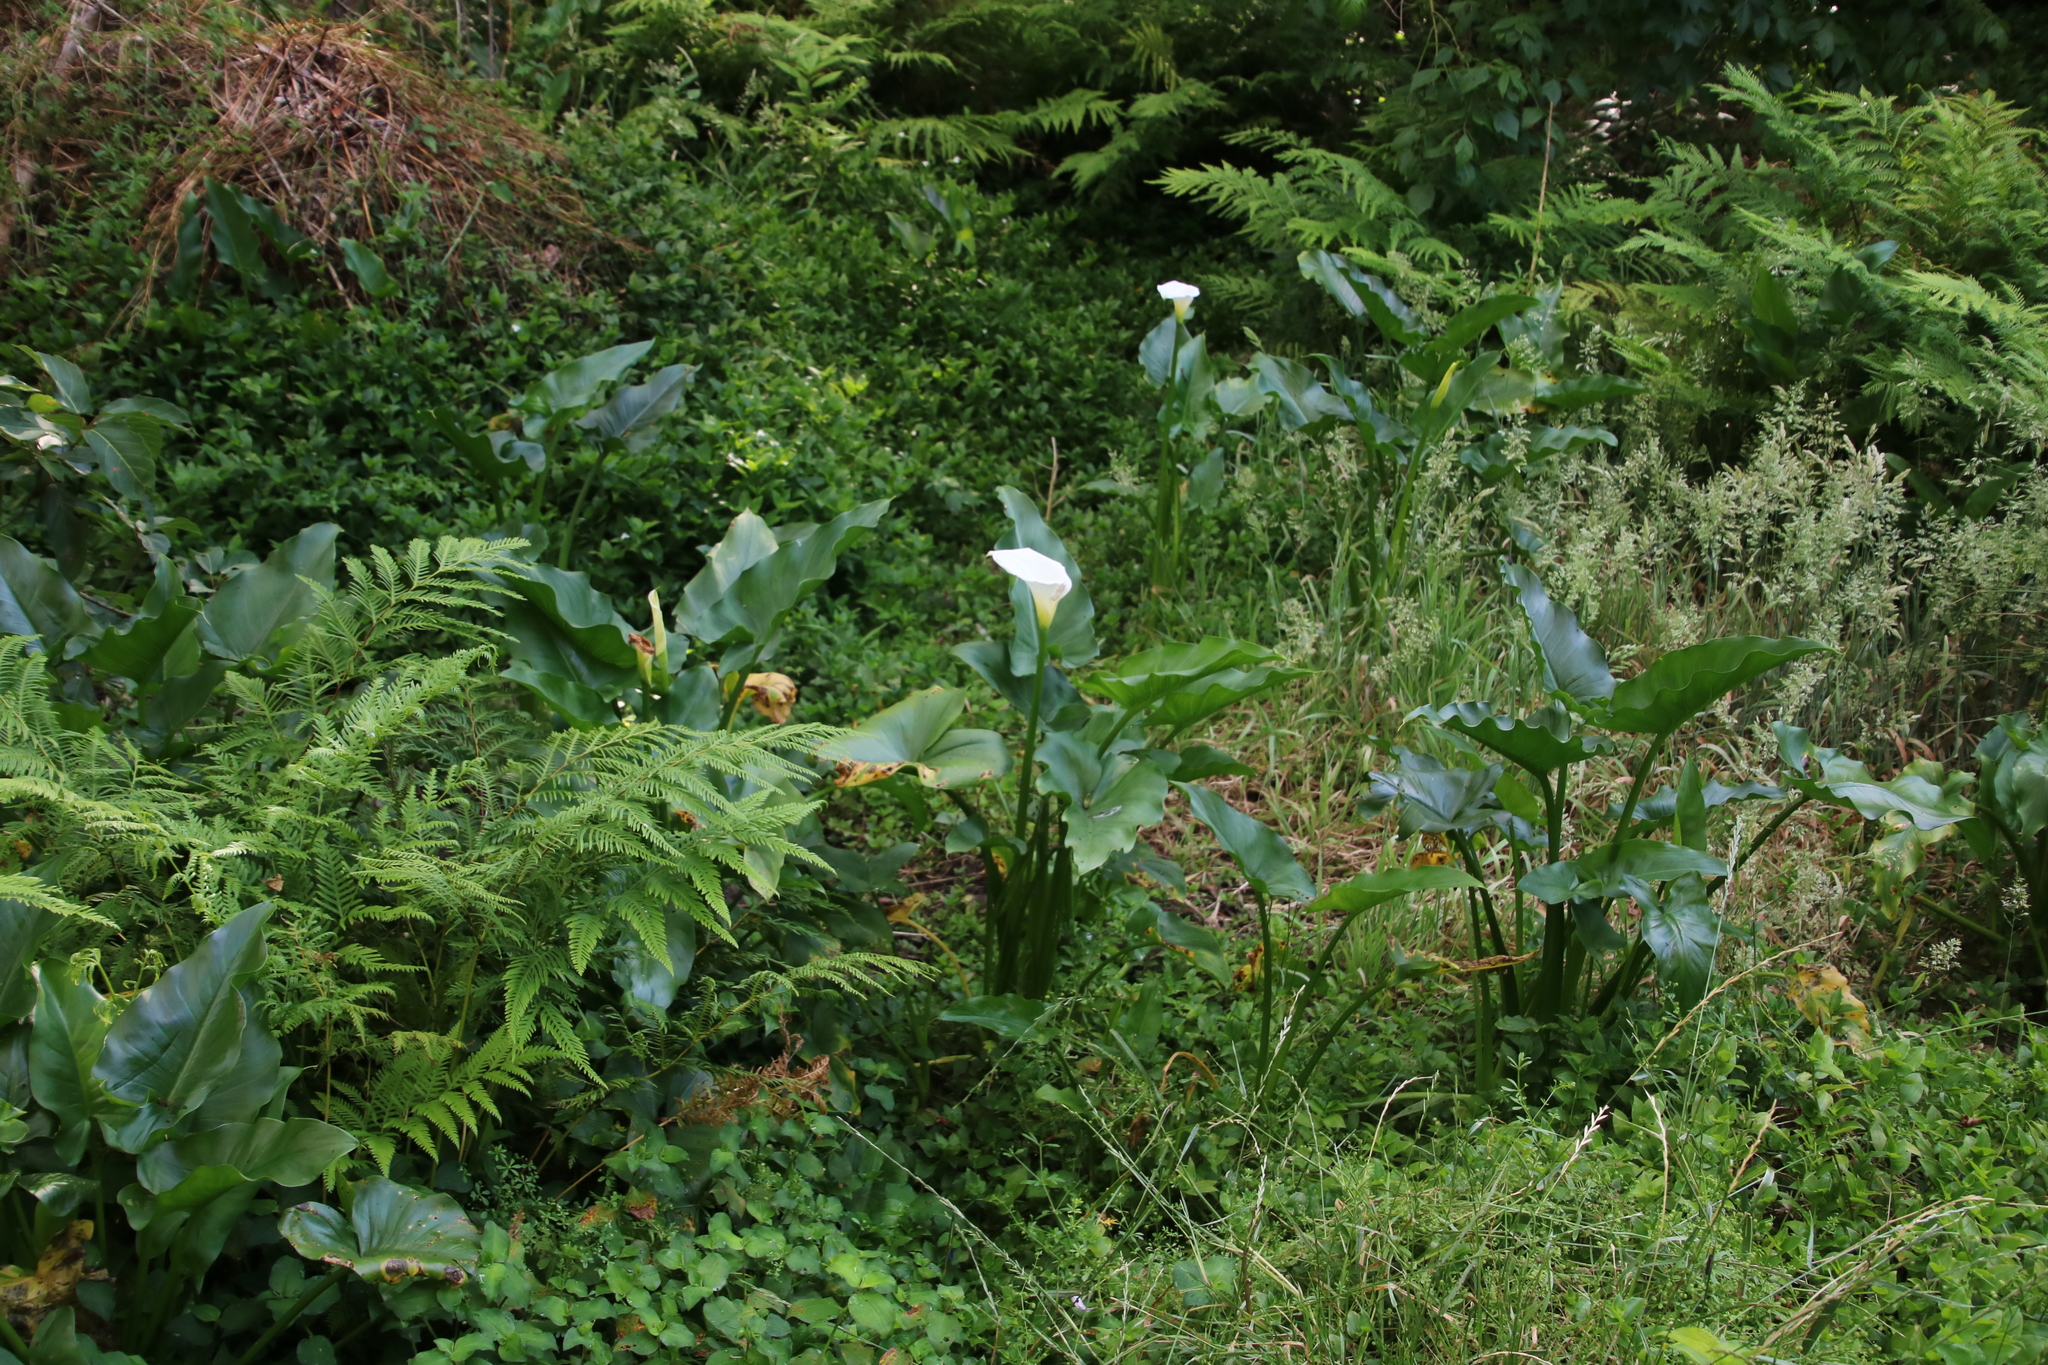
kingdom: Plantae
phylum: Tracheophyta
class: Liliopsida
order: Alismatales
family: Araceae
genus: Zantedeschia
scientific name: Zantedeschia aethiopica
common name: Altar-lily
